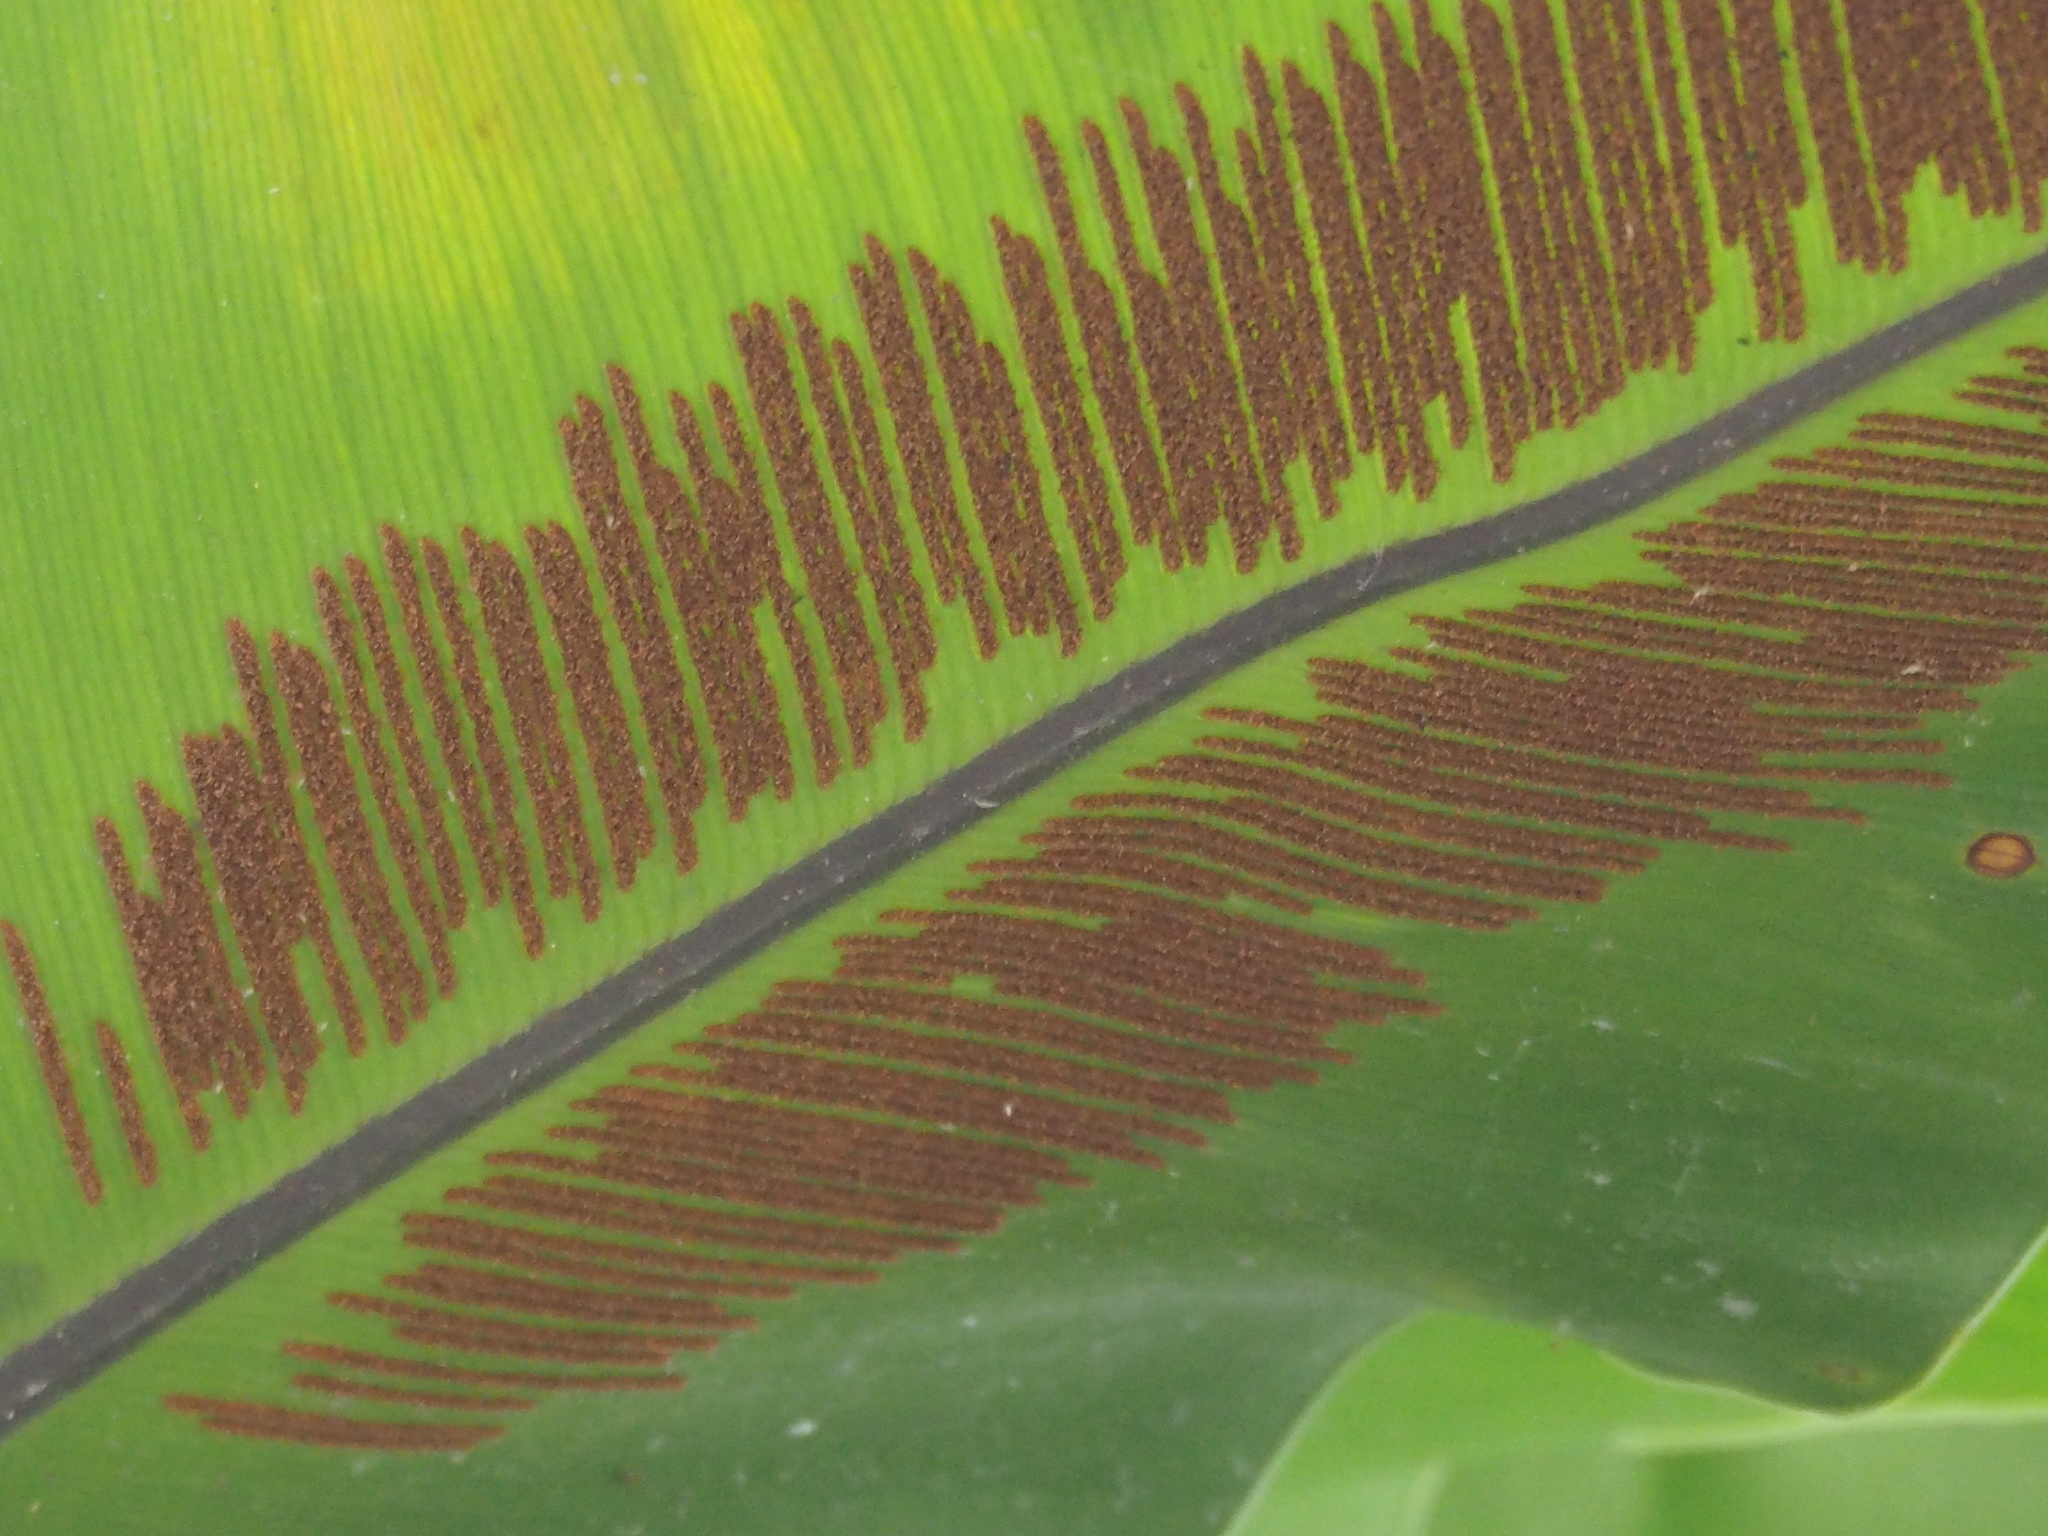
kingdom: Plantae
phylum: Tracheophyta
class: Polypodiopsida
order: Polypodiales
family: Aspleniaceae
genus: Asplenium
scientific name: Asplenium setoi
